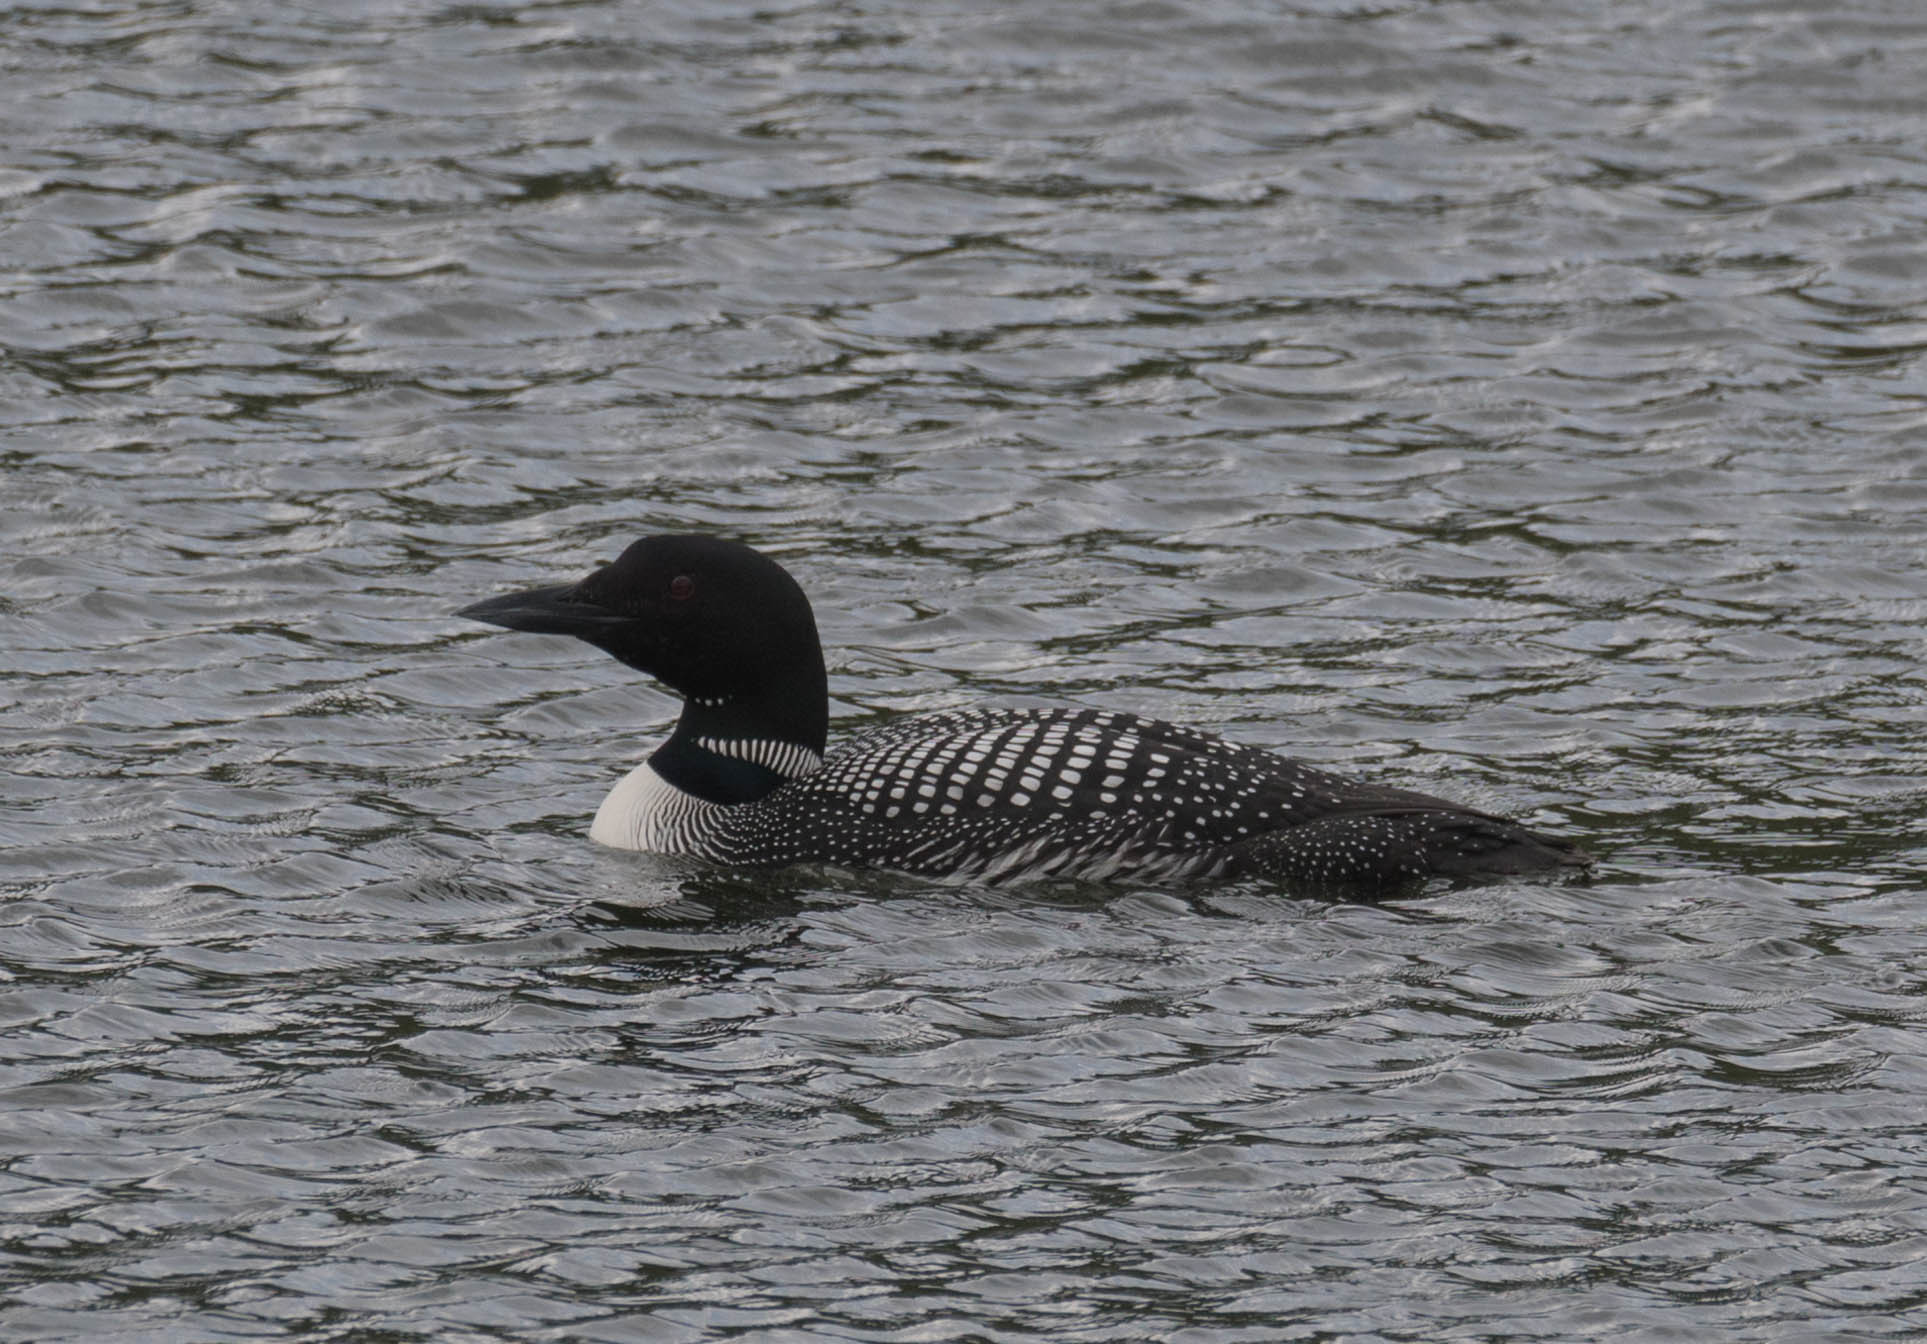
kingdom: Animalia
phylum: Chordata
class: Aves
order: Gaviiformes
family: Gaviidae
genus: Gavia
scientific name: Gavia immer
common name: Common loon
